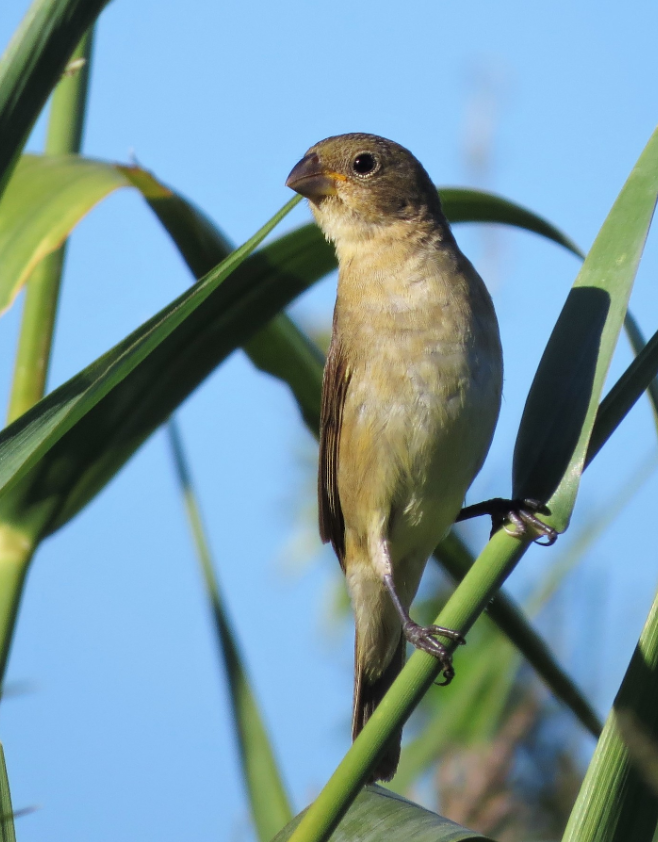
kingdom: Animalia
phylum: Chordata
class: Aves
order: Passeriformes
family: Thraupidae
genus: Sporophila
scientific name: Sporophila caerulescens
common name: Double-collared seedeater
